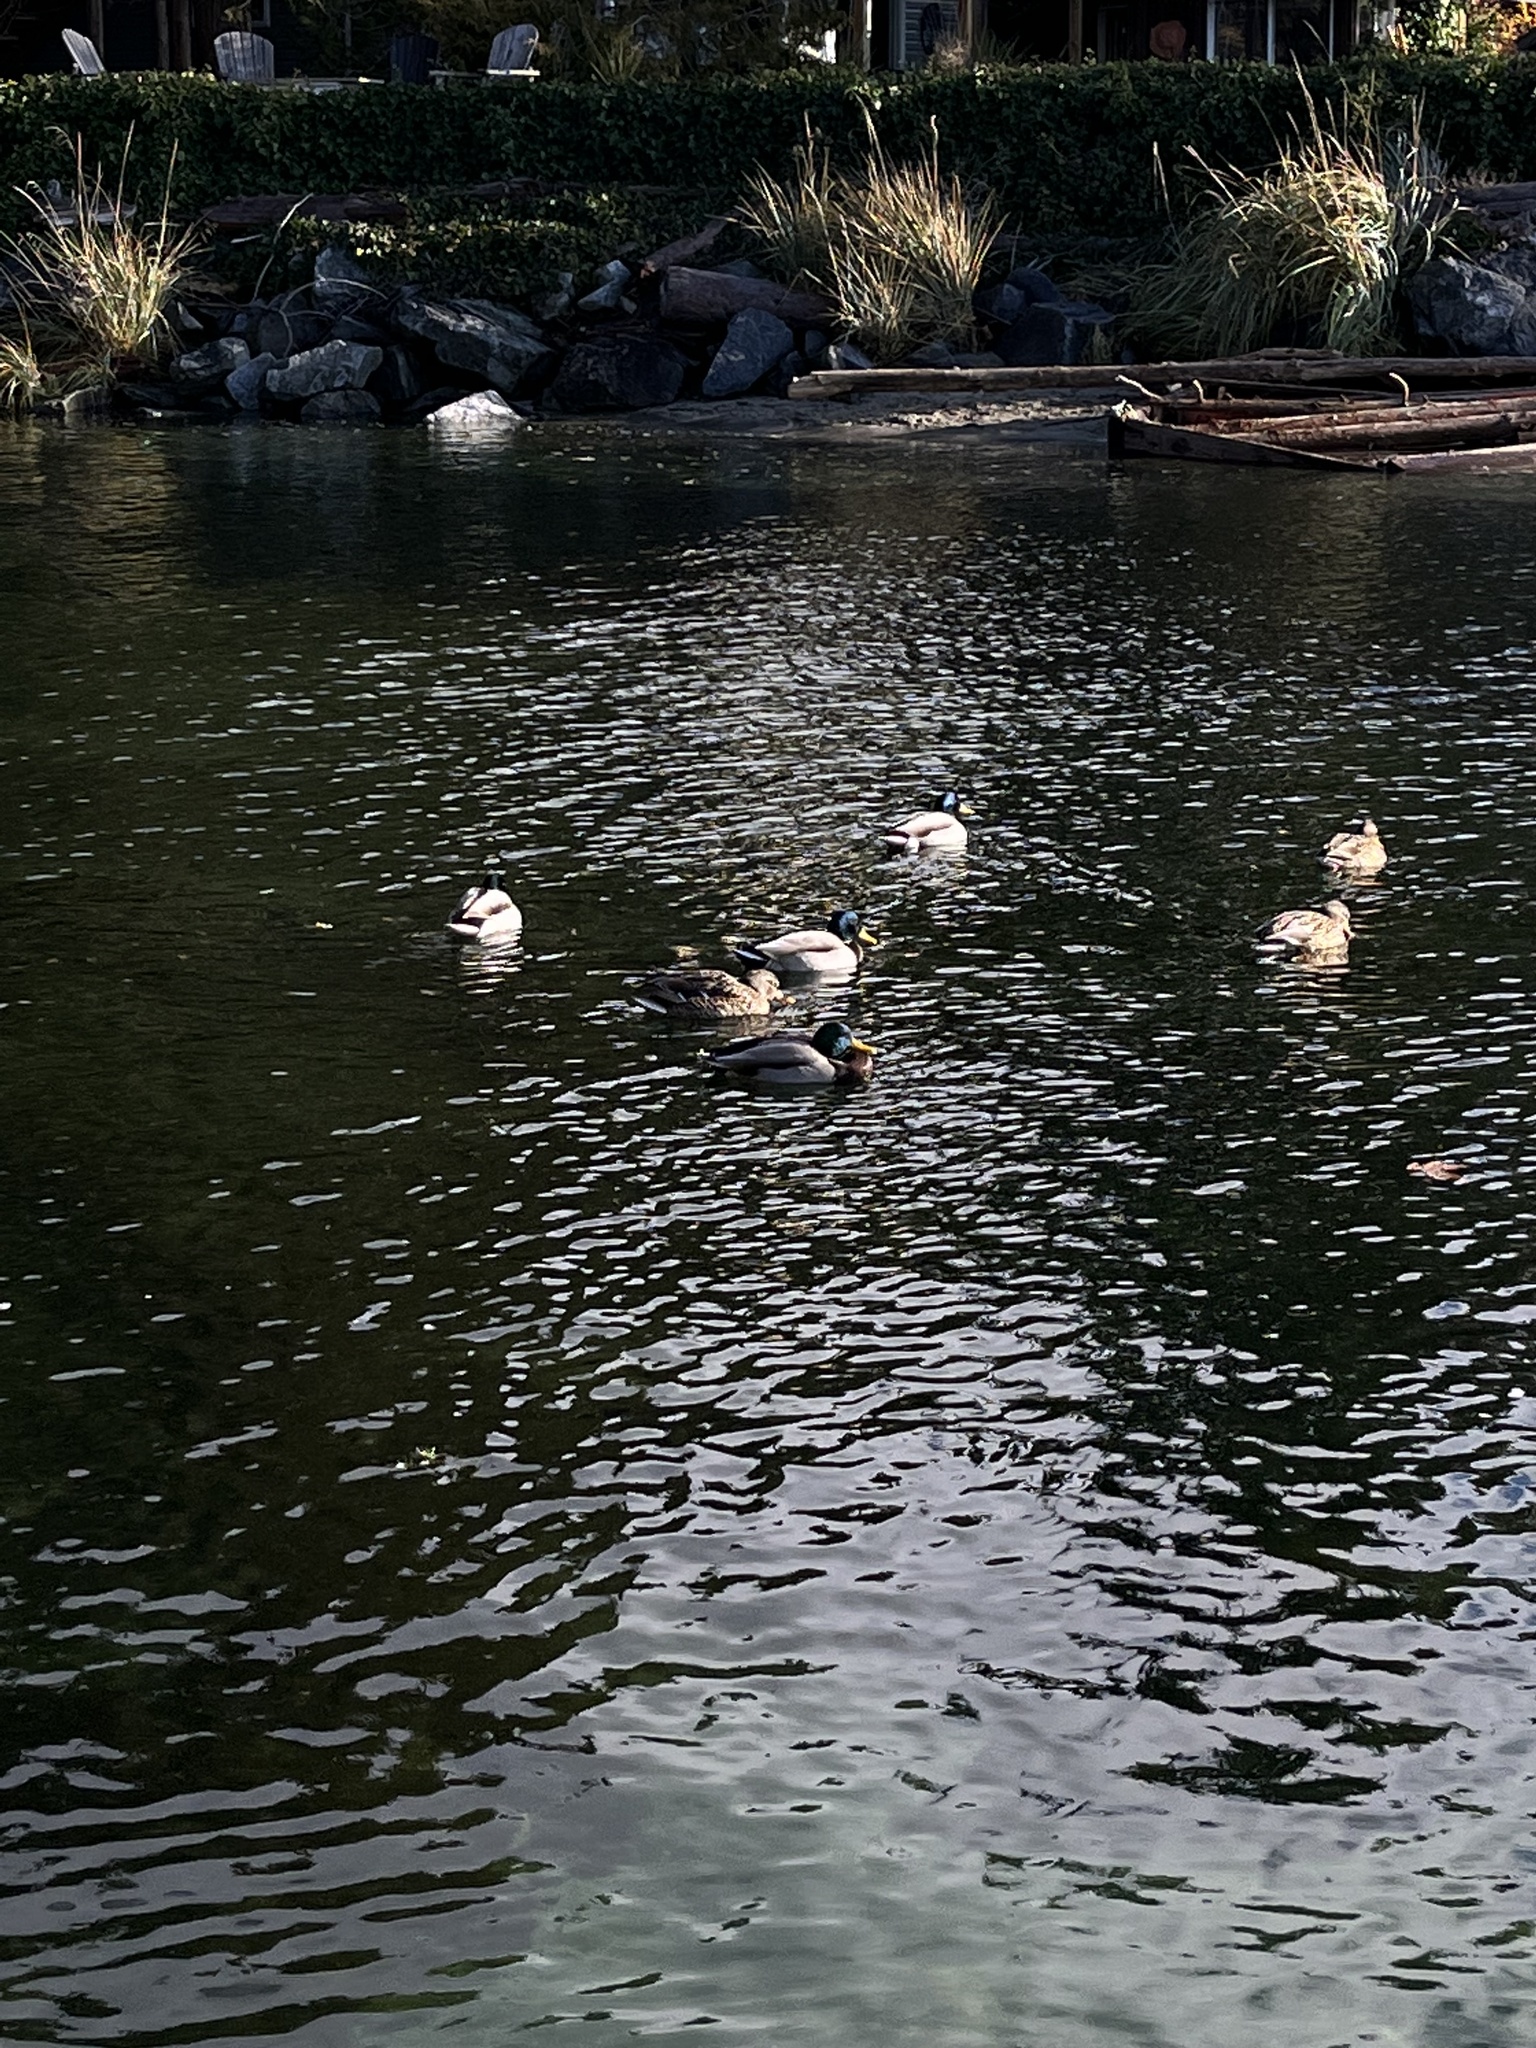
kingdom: Animalia
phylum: Chordata
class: Aves
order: Anseriformes
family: Anatidae
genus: Anas
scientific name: Anas platyrhynchos
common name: Mallard
